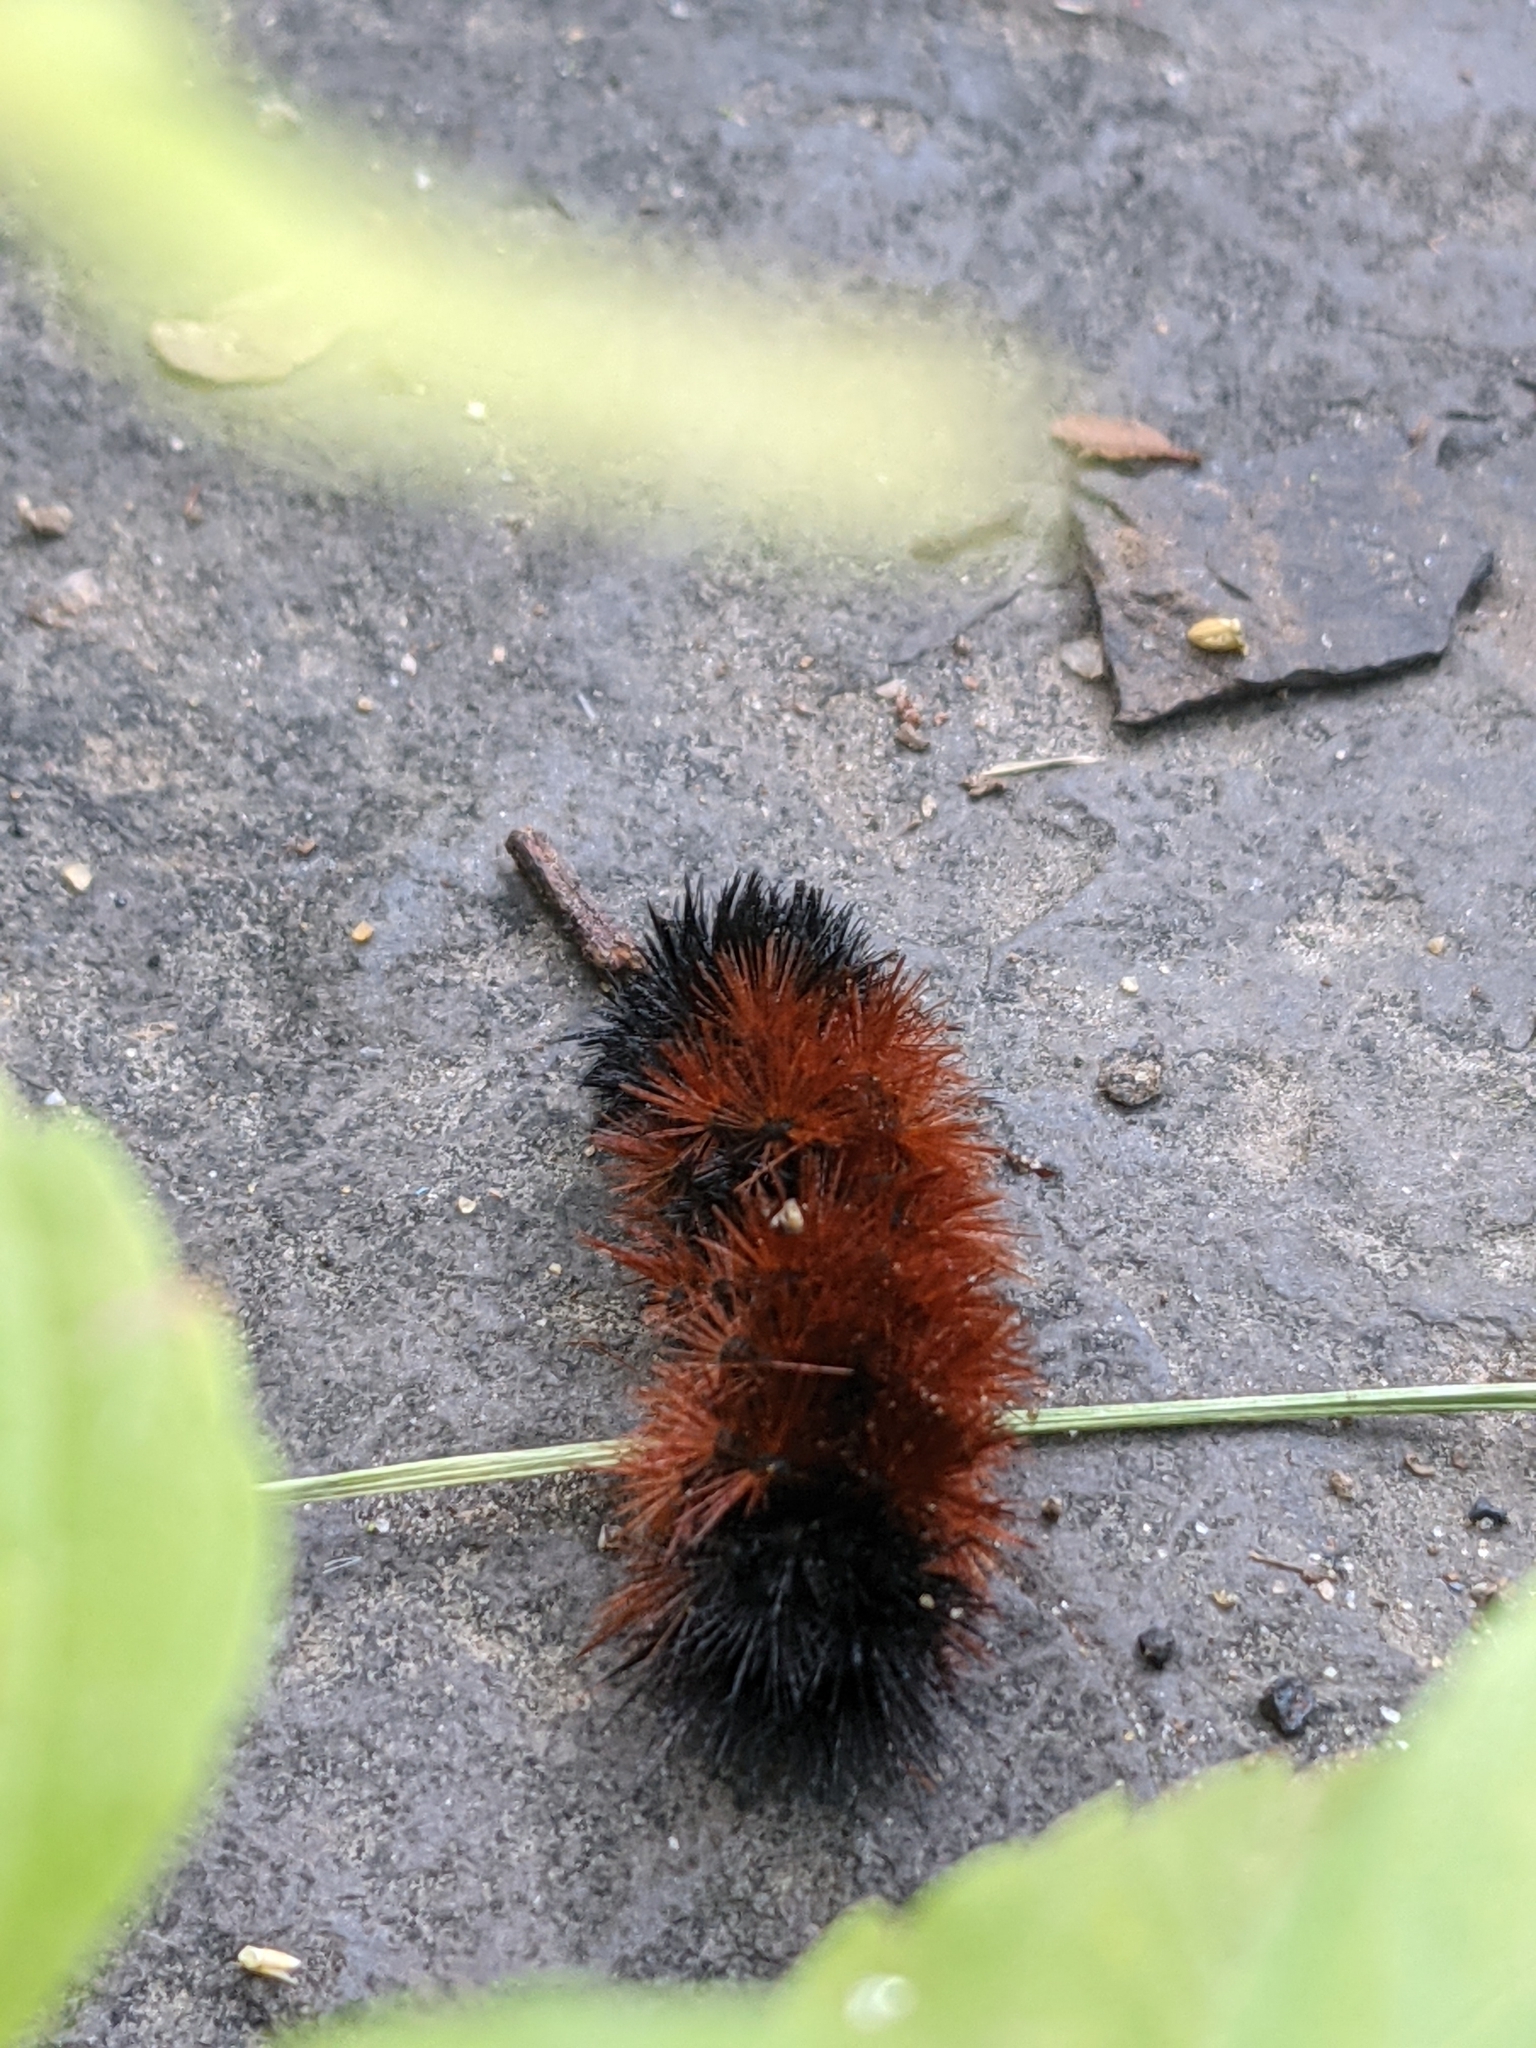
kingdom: Animalia
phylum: Arthropoda
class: Insecta
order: Lepidoptera
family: Erebidae
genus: Pyrrharctia
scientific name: Pyrrharctia isabella
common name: Isabella tiger moth
